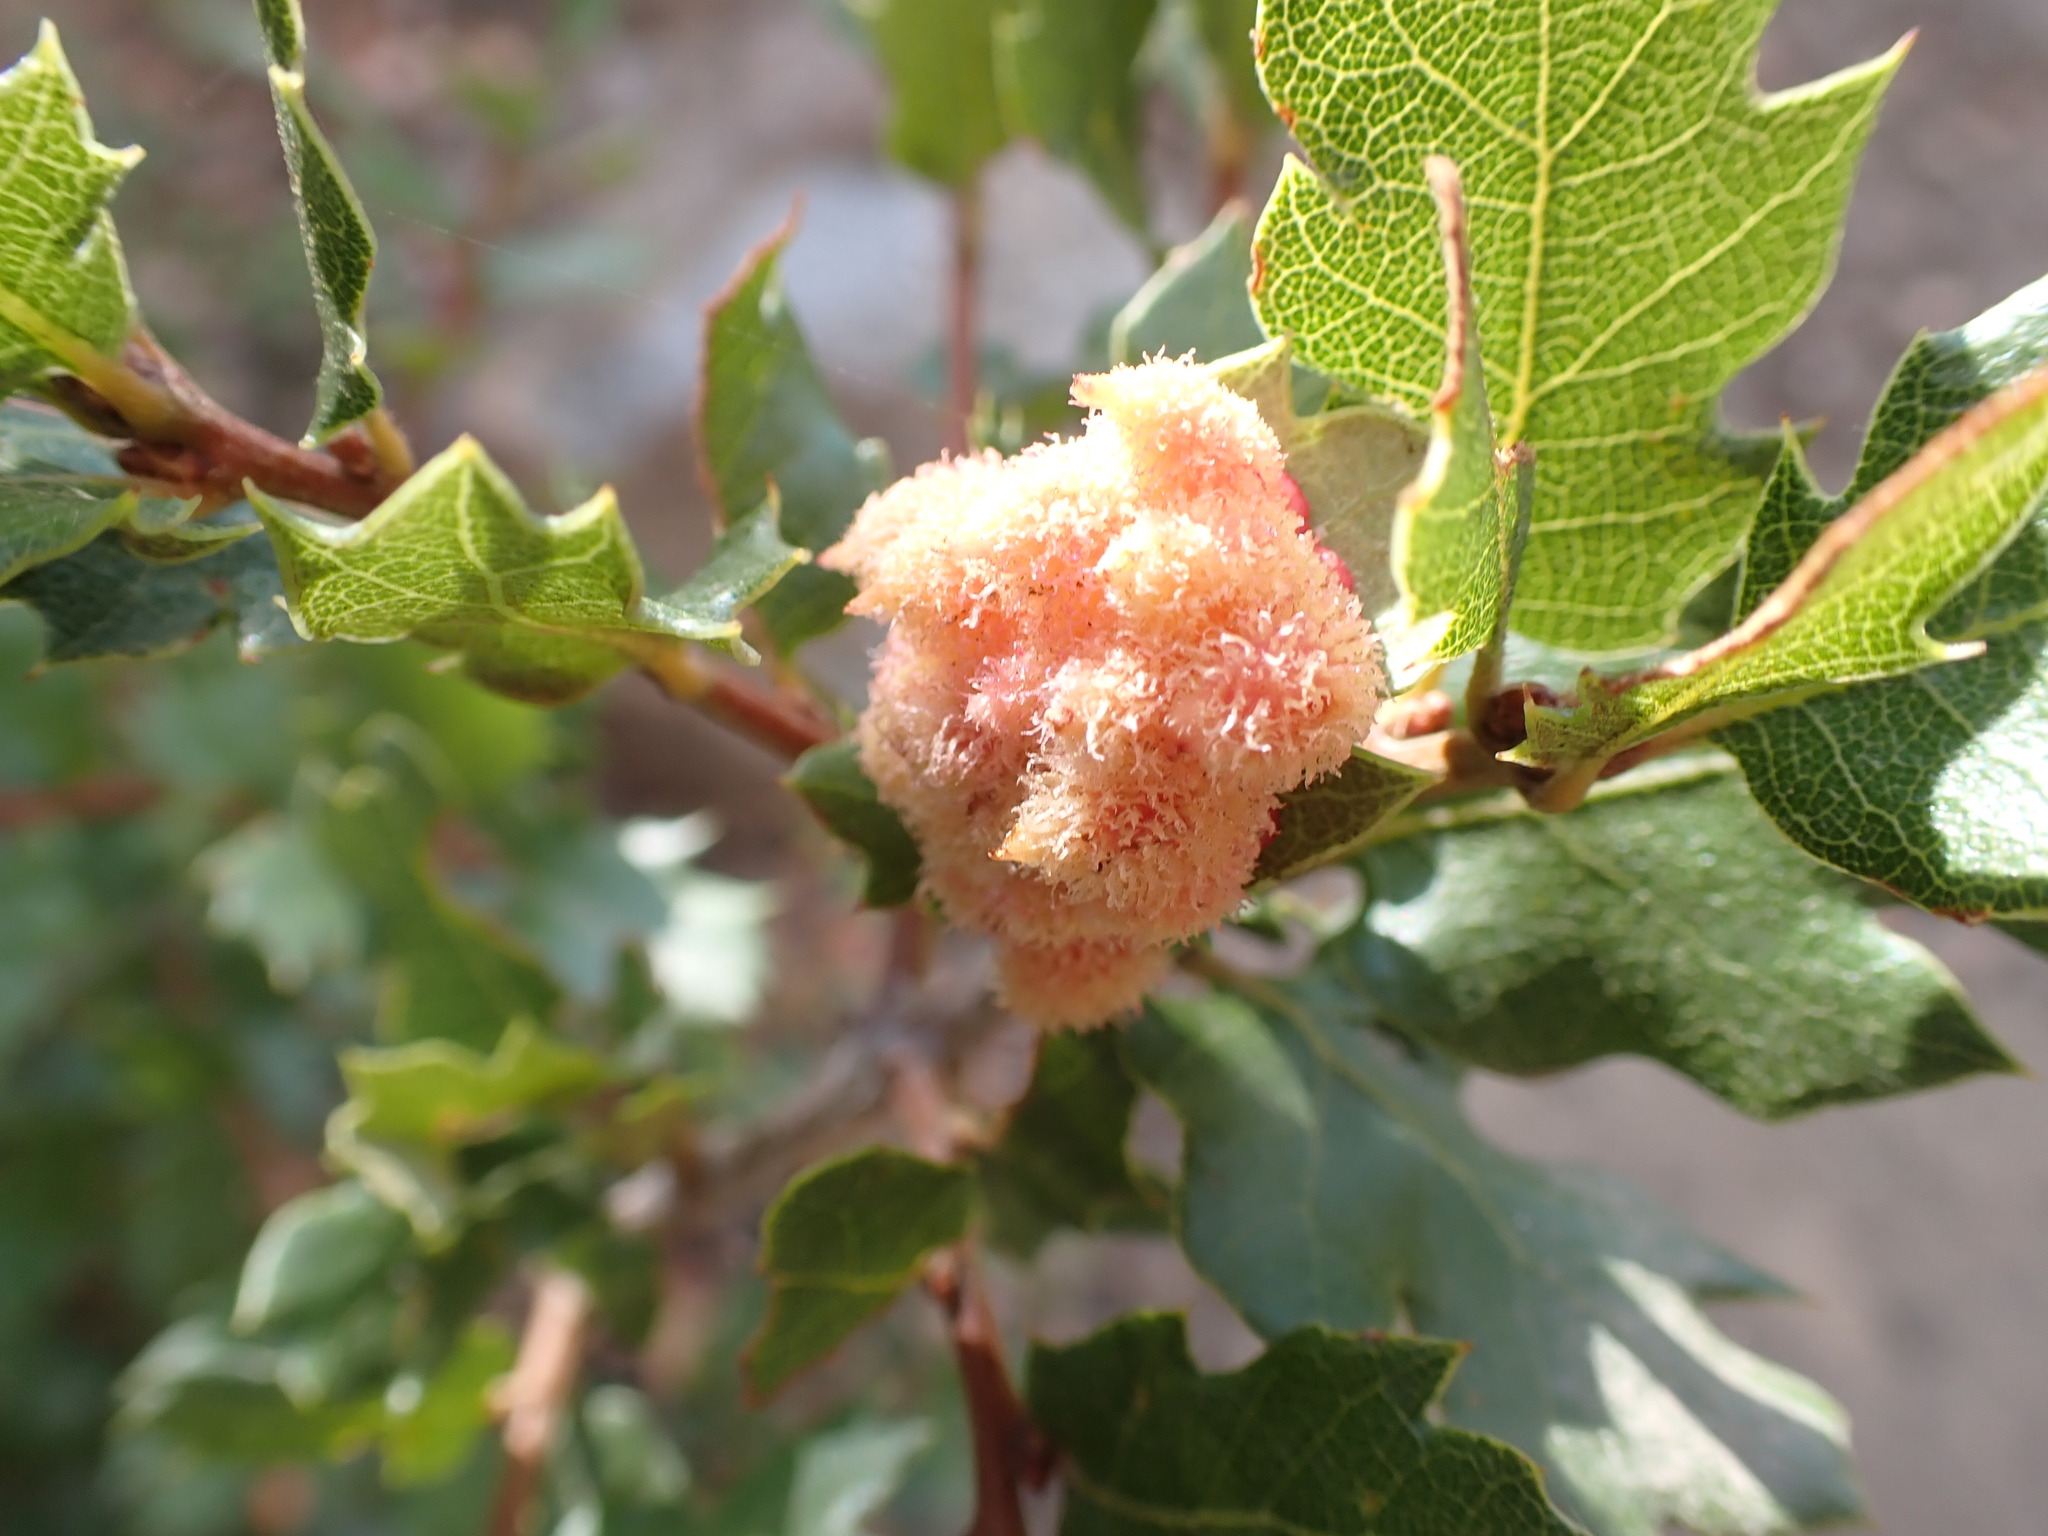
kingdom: Animalia
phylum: Arthropoda
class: Insecta
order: Hymenoptera
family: Cynipidae
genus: Andricus
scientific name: Andricus
